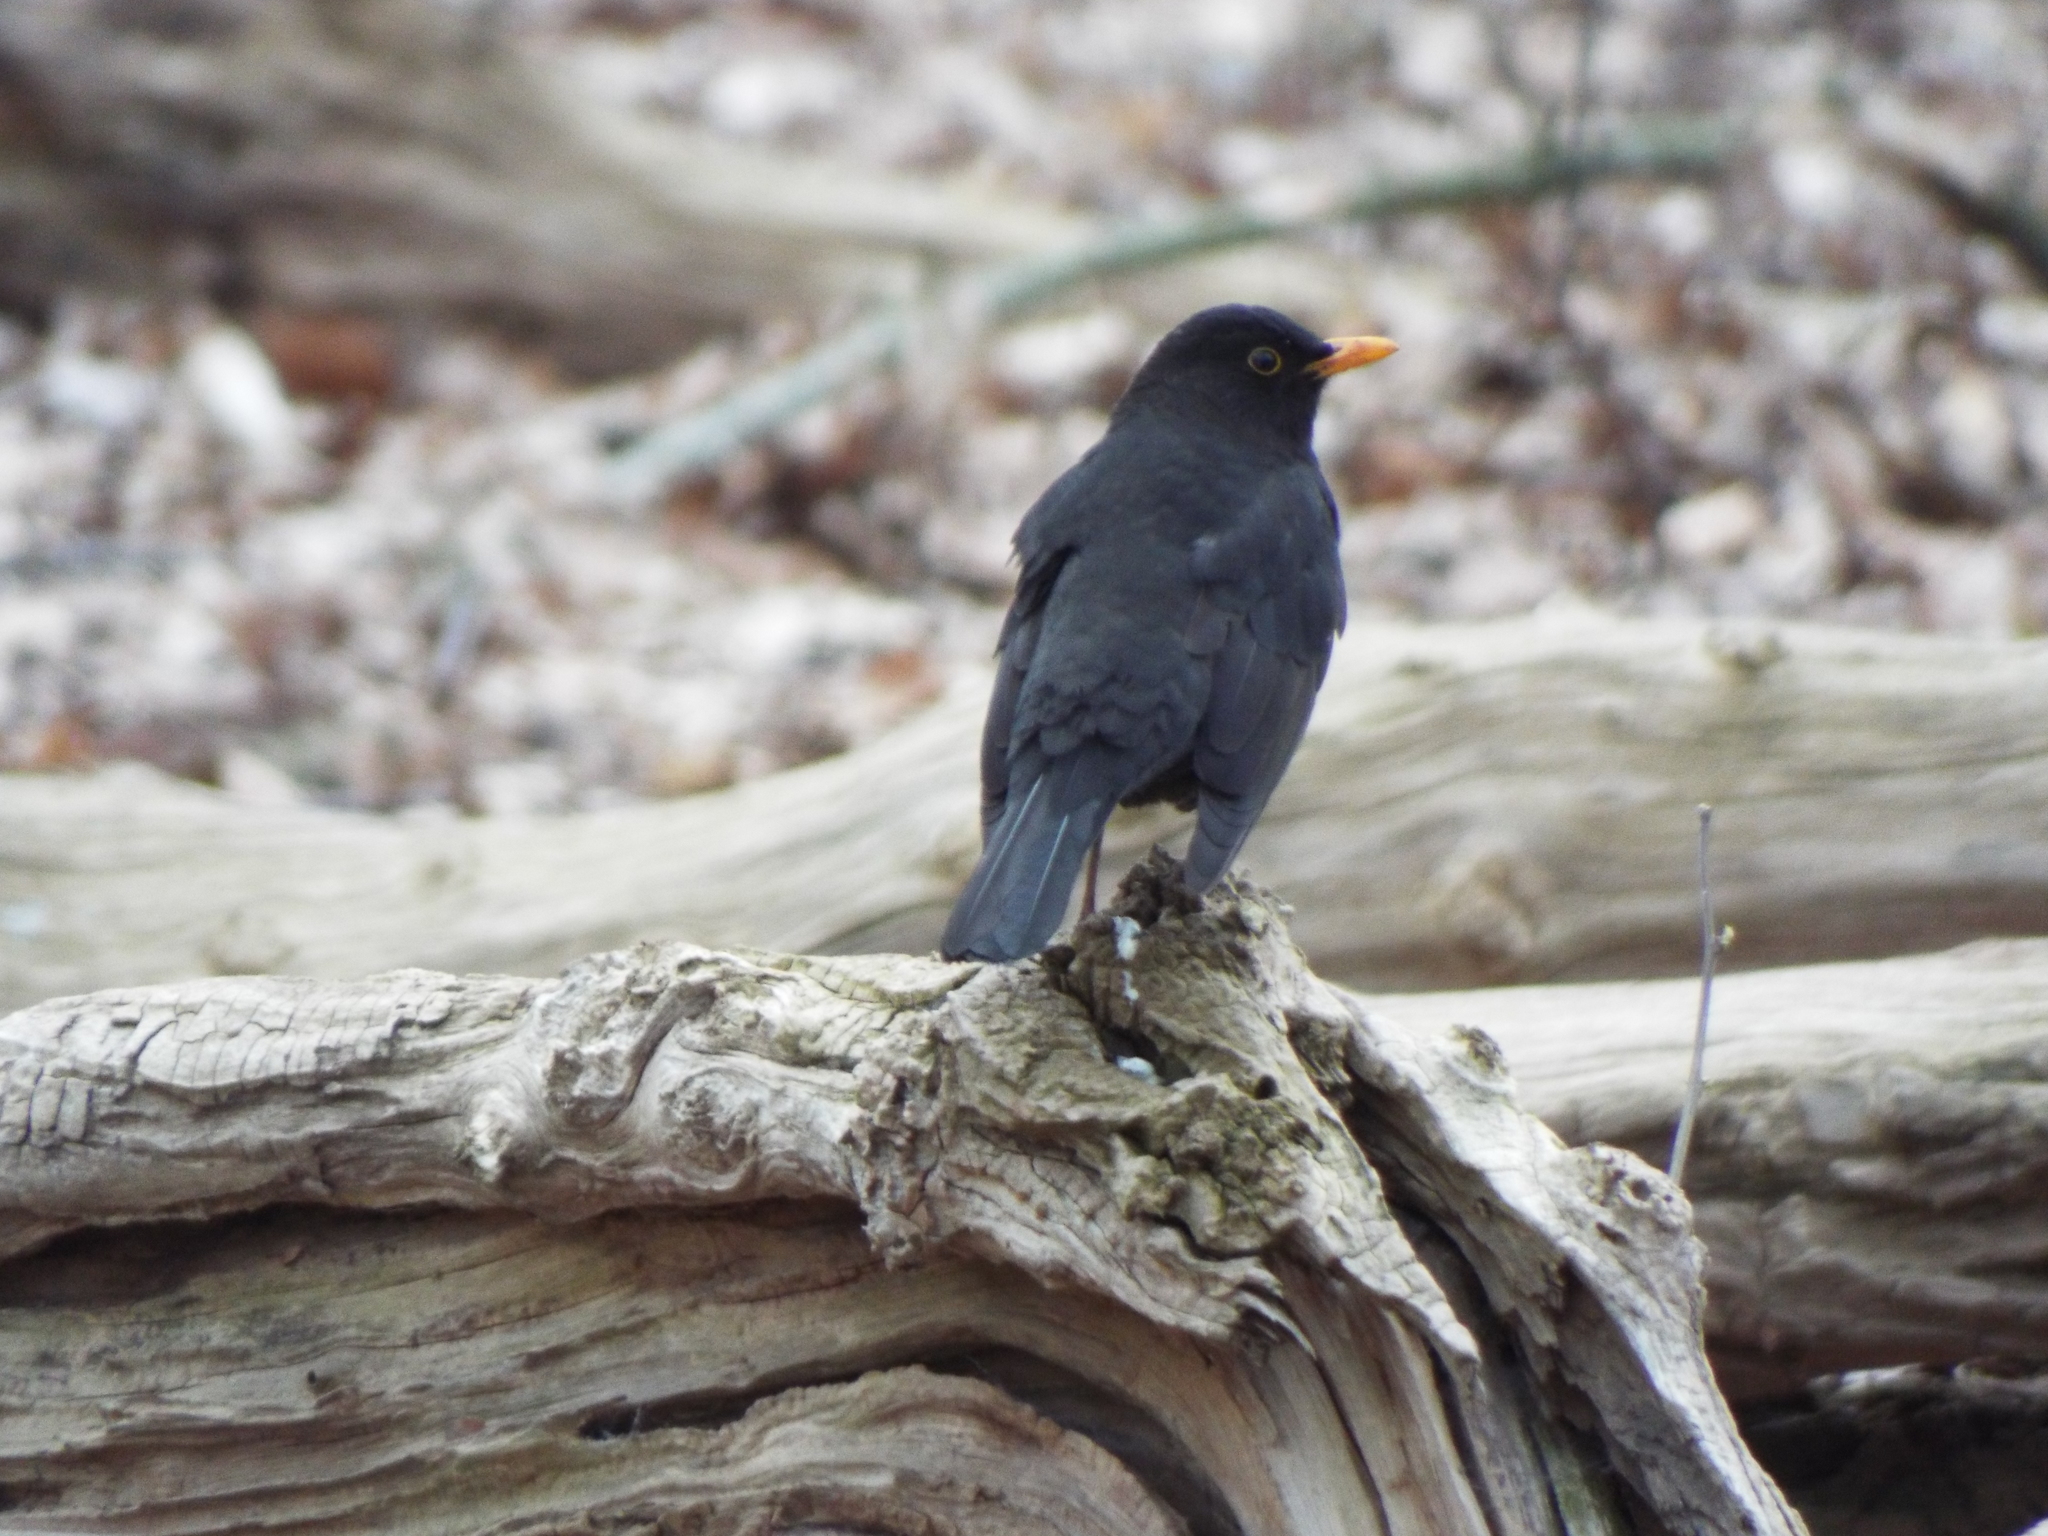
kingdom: Animalia
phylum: Chordata
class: Aves
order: Passeriformes
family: Turdidae
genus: Turdus
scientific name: Turdus merula
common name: Common blackbird
